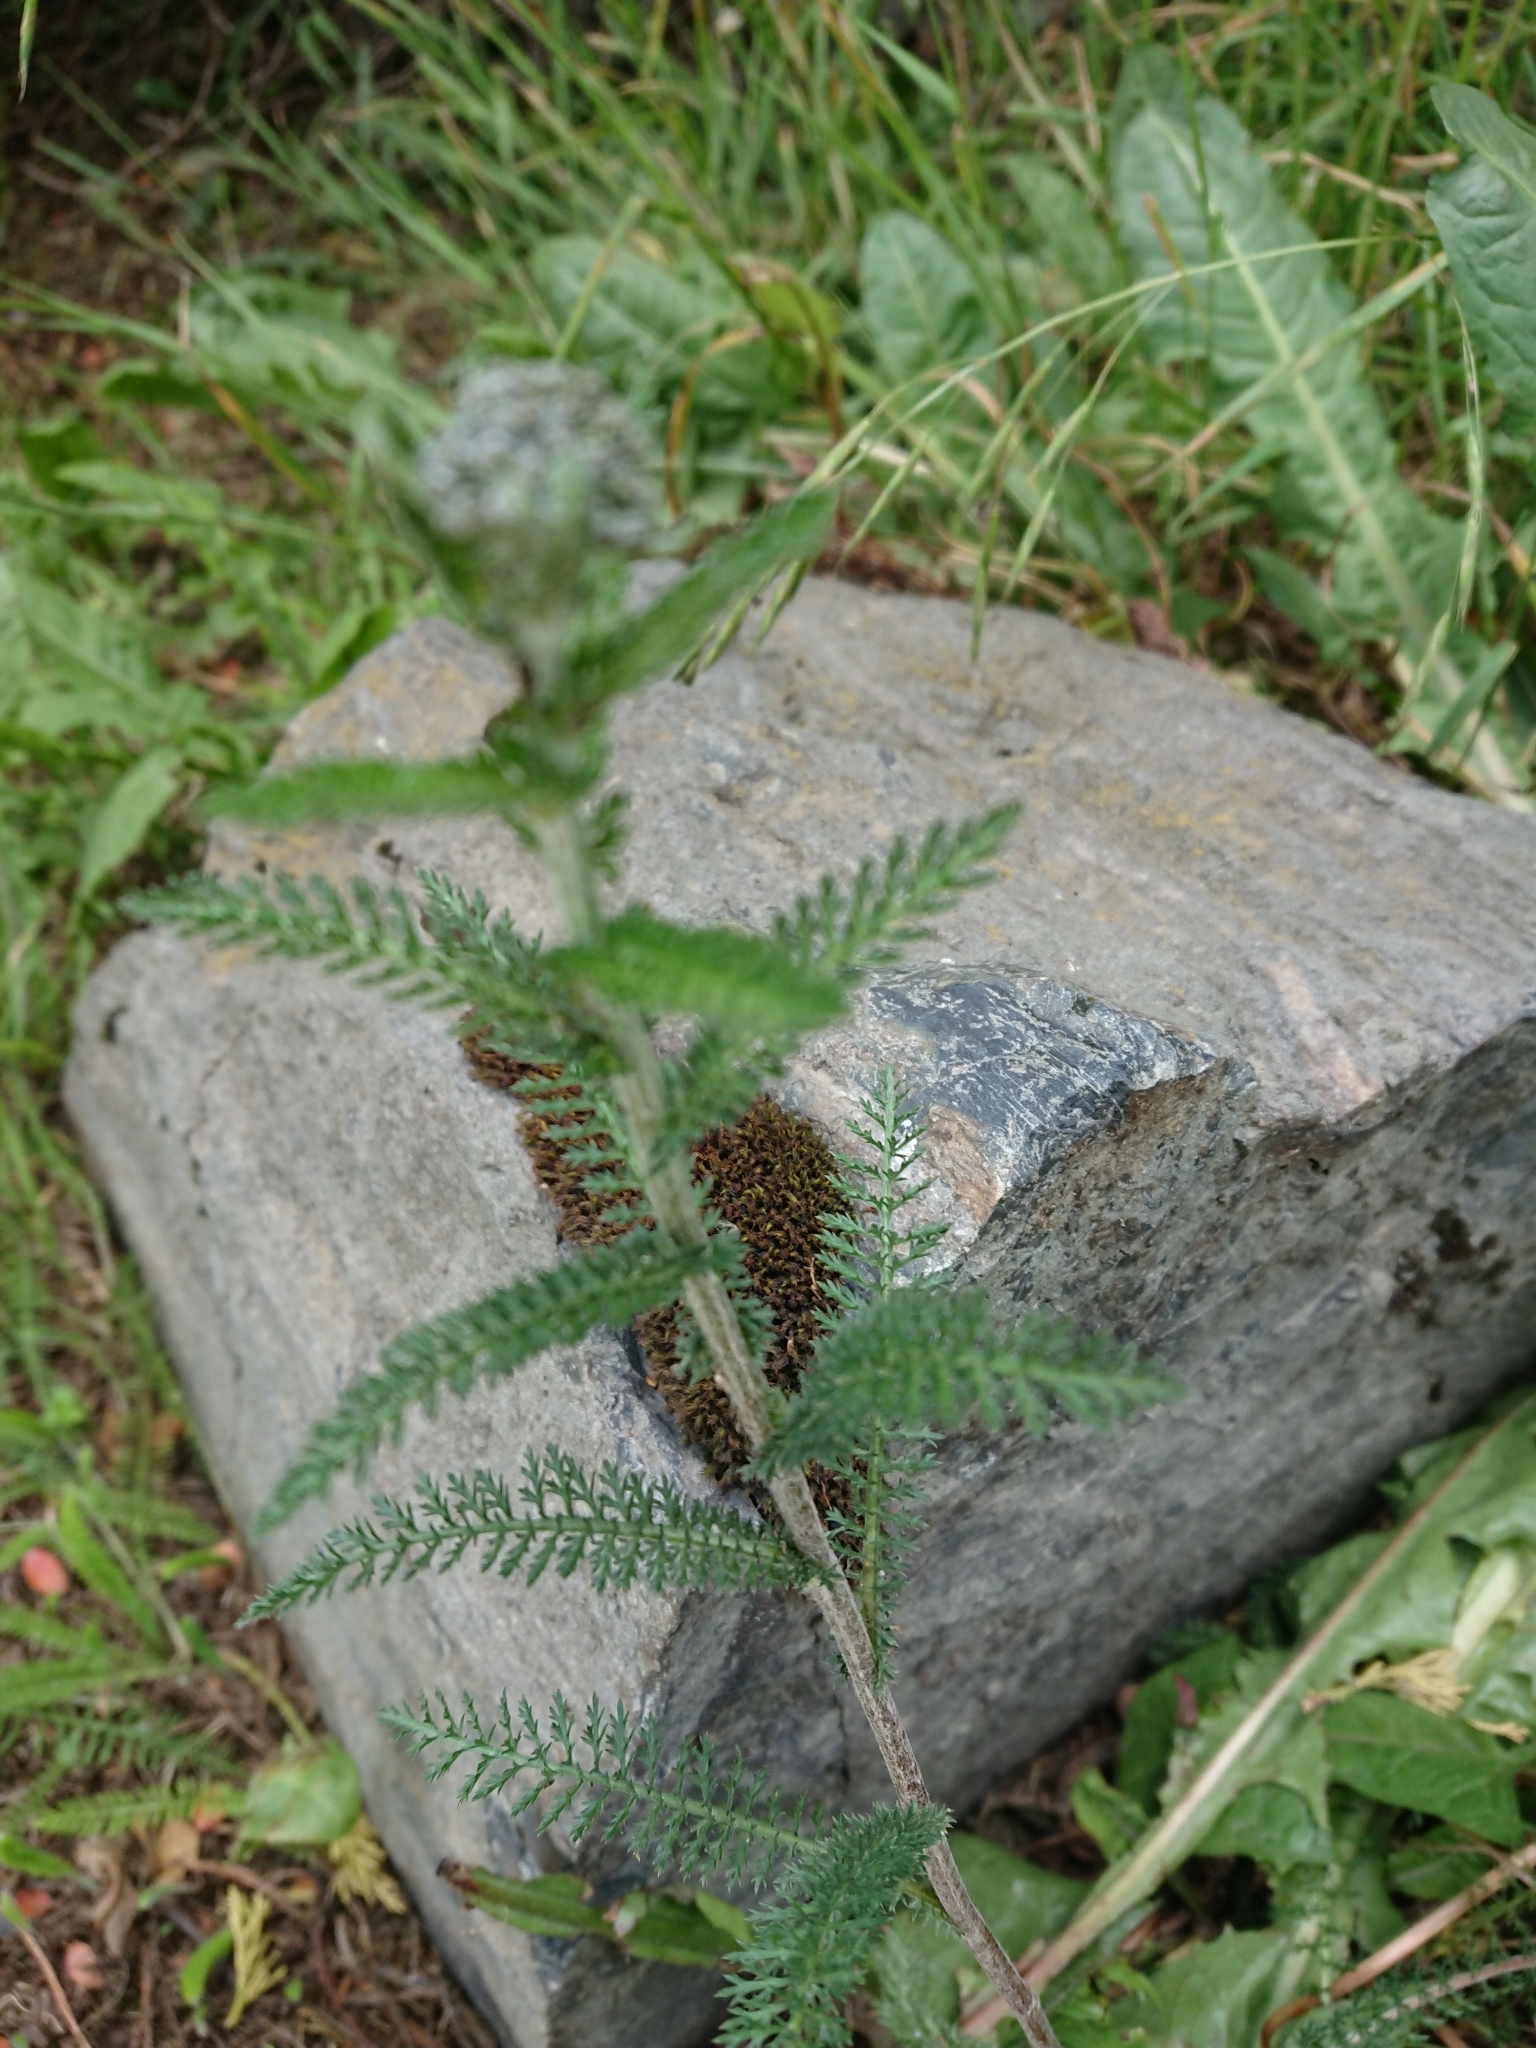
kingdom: Plantae
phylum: Tracheophyta
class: Magnoliopsida
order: Asterales
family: Asteraceae
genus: Achillea
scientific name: Achillea millefolium
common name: Yarrow
